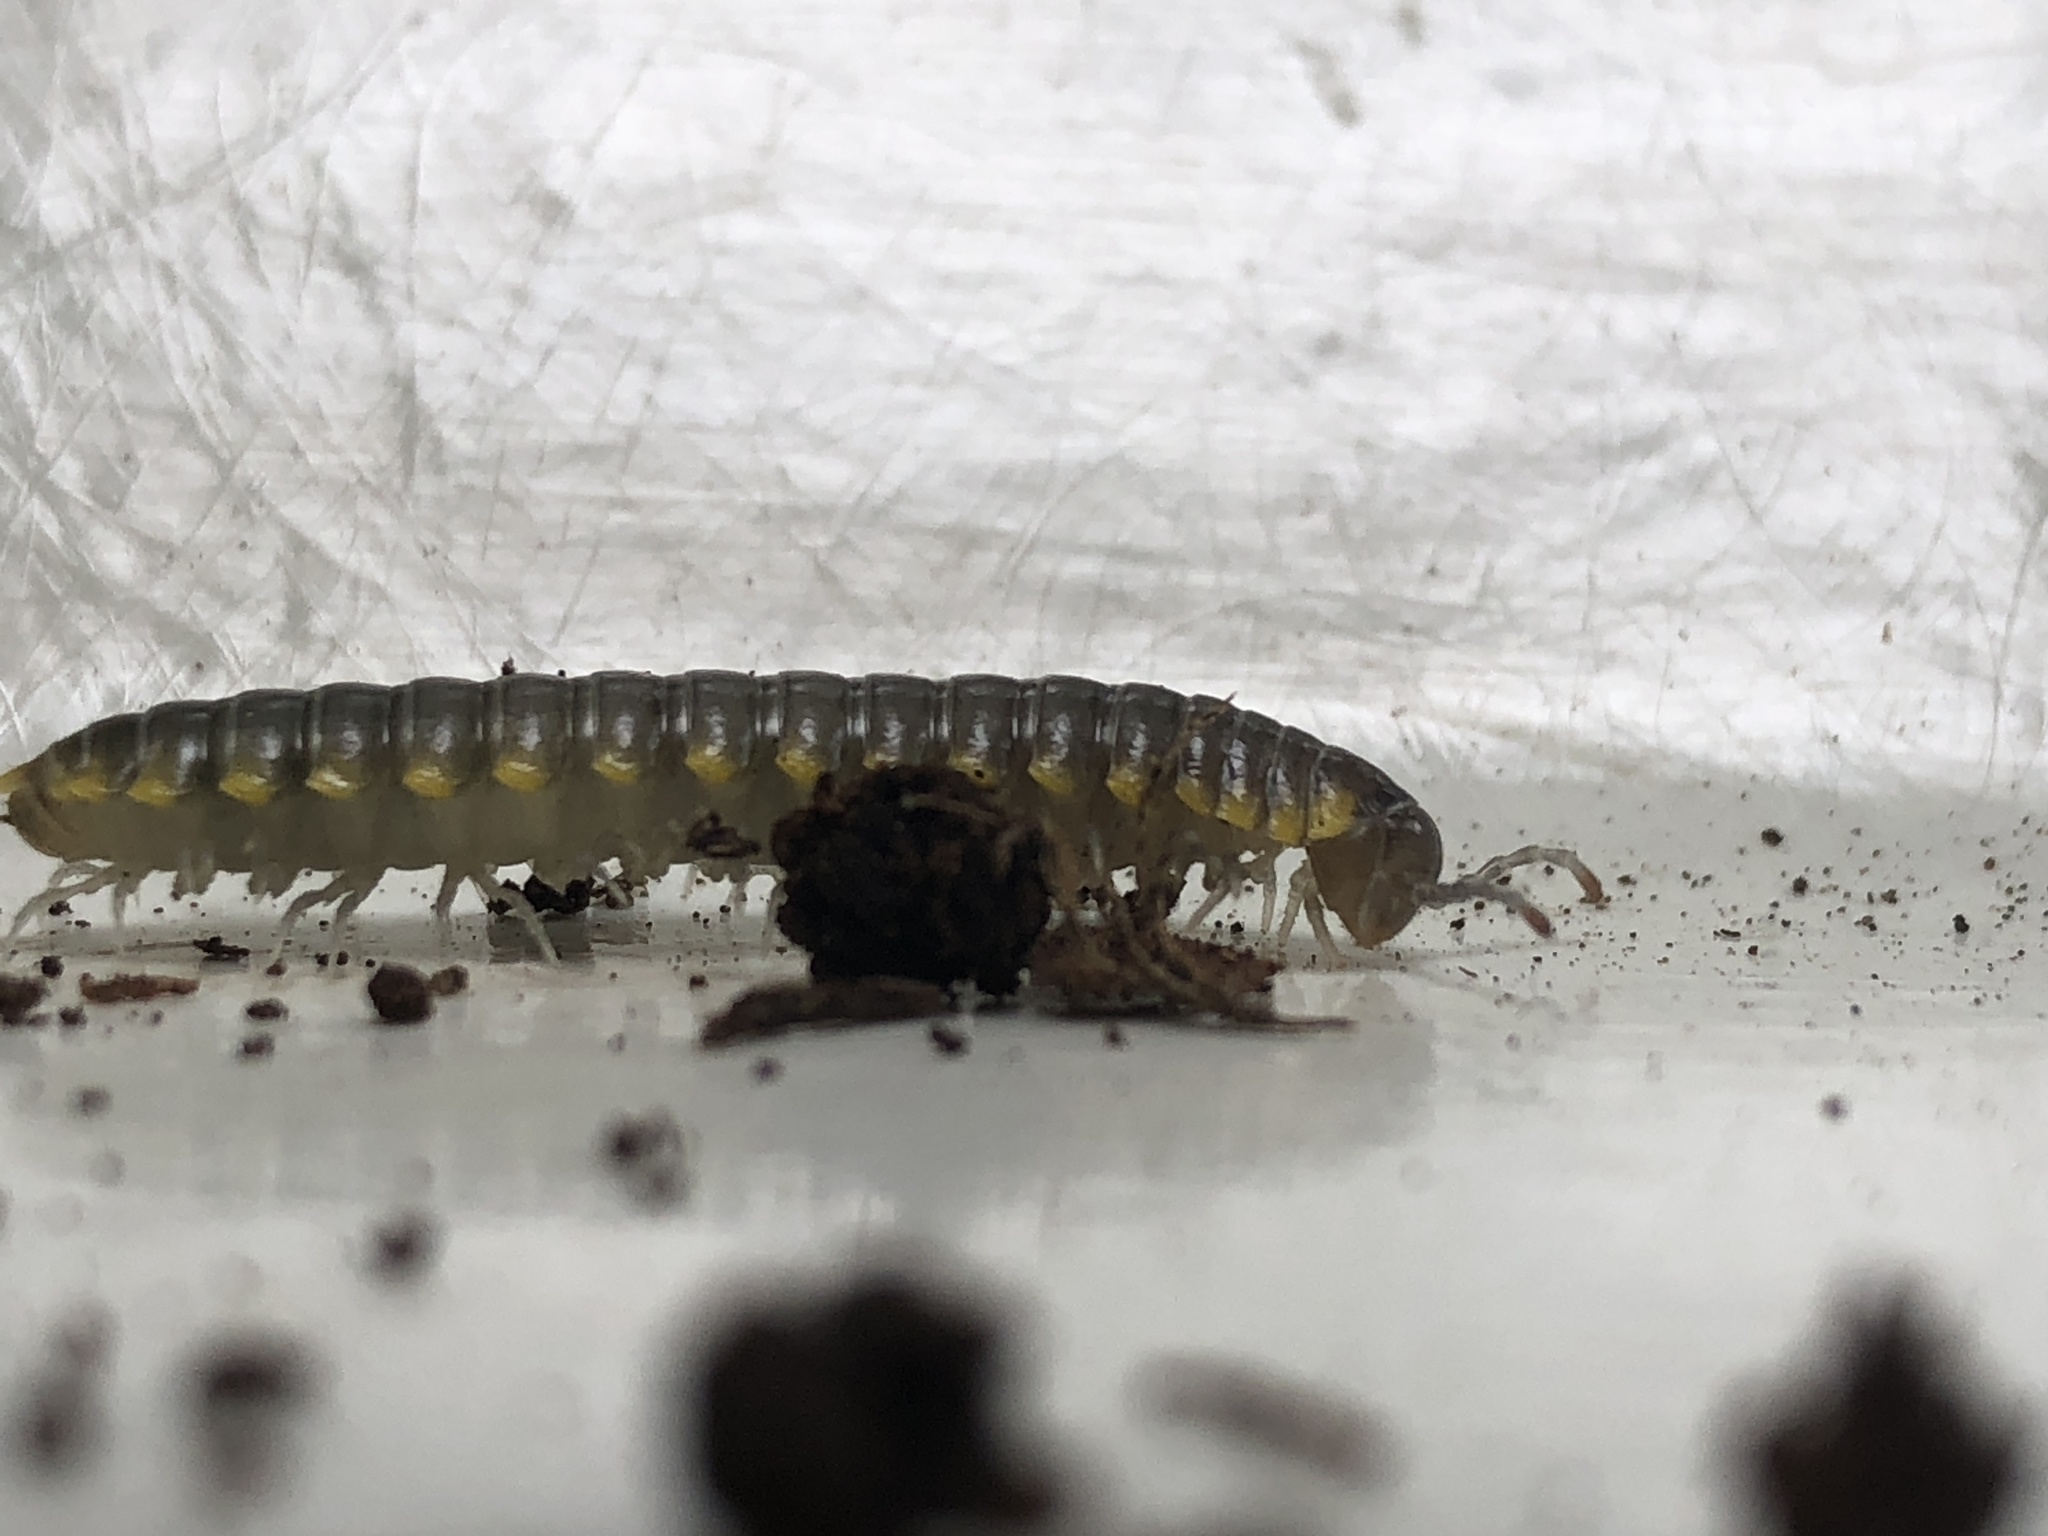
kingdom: Animalia
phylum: Arthropoda
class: Diplopoda
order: Polydesmida
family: Xystodesmidae
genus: Harpaphe
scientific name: Harpaphe haydeniana
